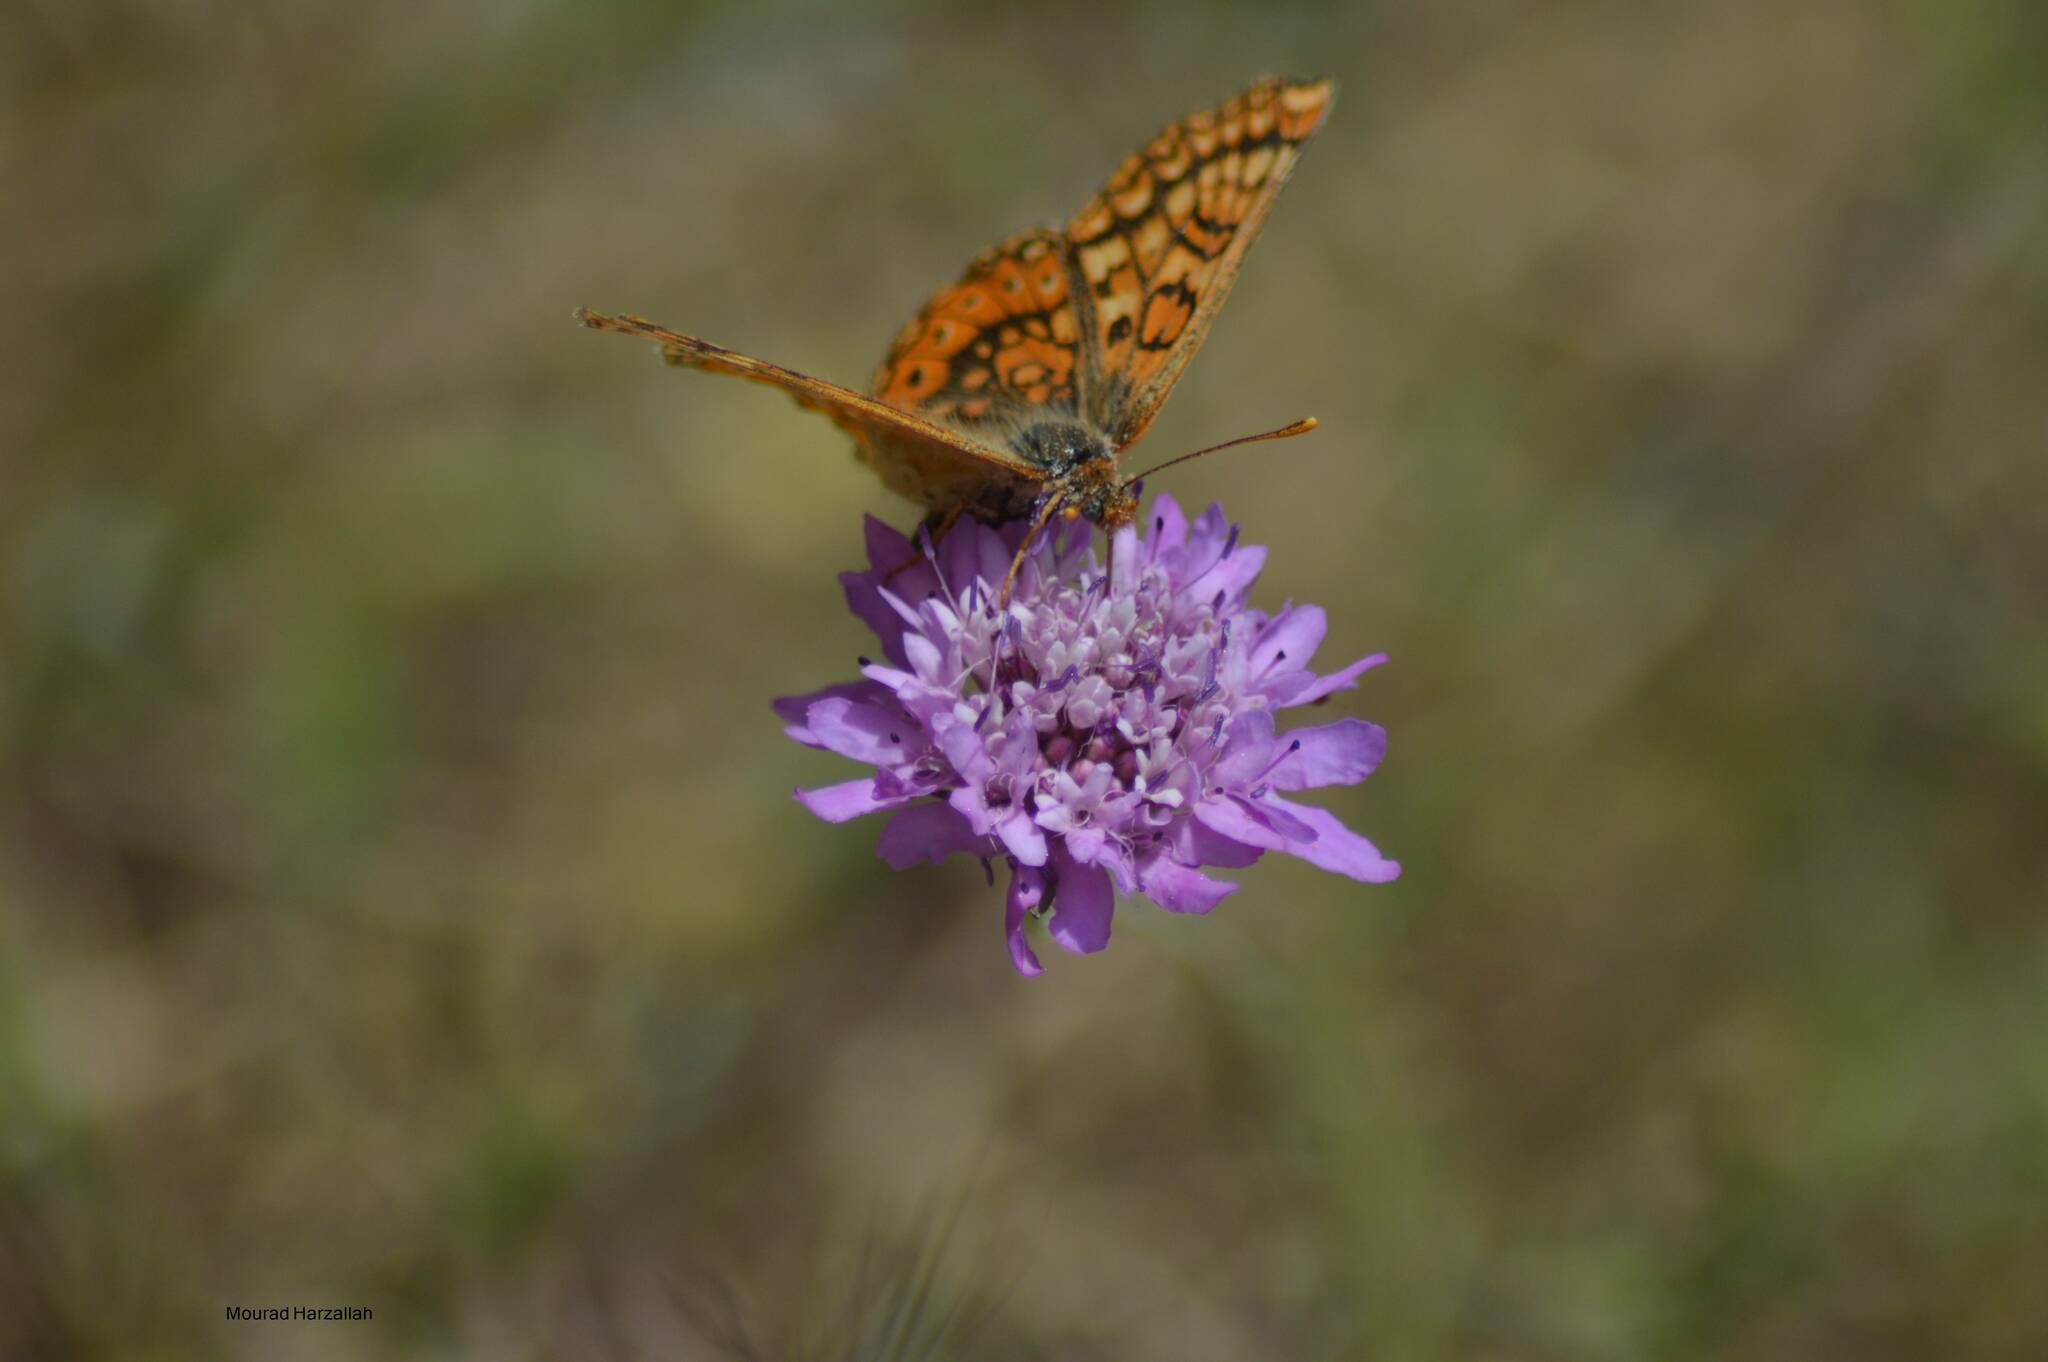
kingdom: Animalia
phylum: Arthropoda
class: Insecta
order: Lepidoptera
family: Nymphalidae
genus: Euphydryas
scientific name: Euphydryas aurinia
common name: Marsh fritillary
